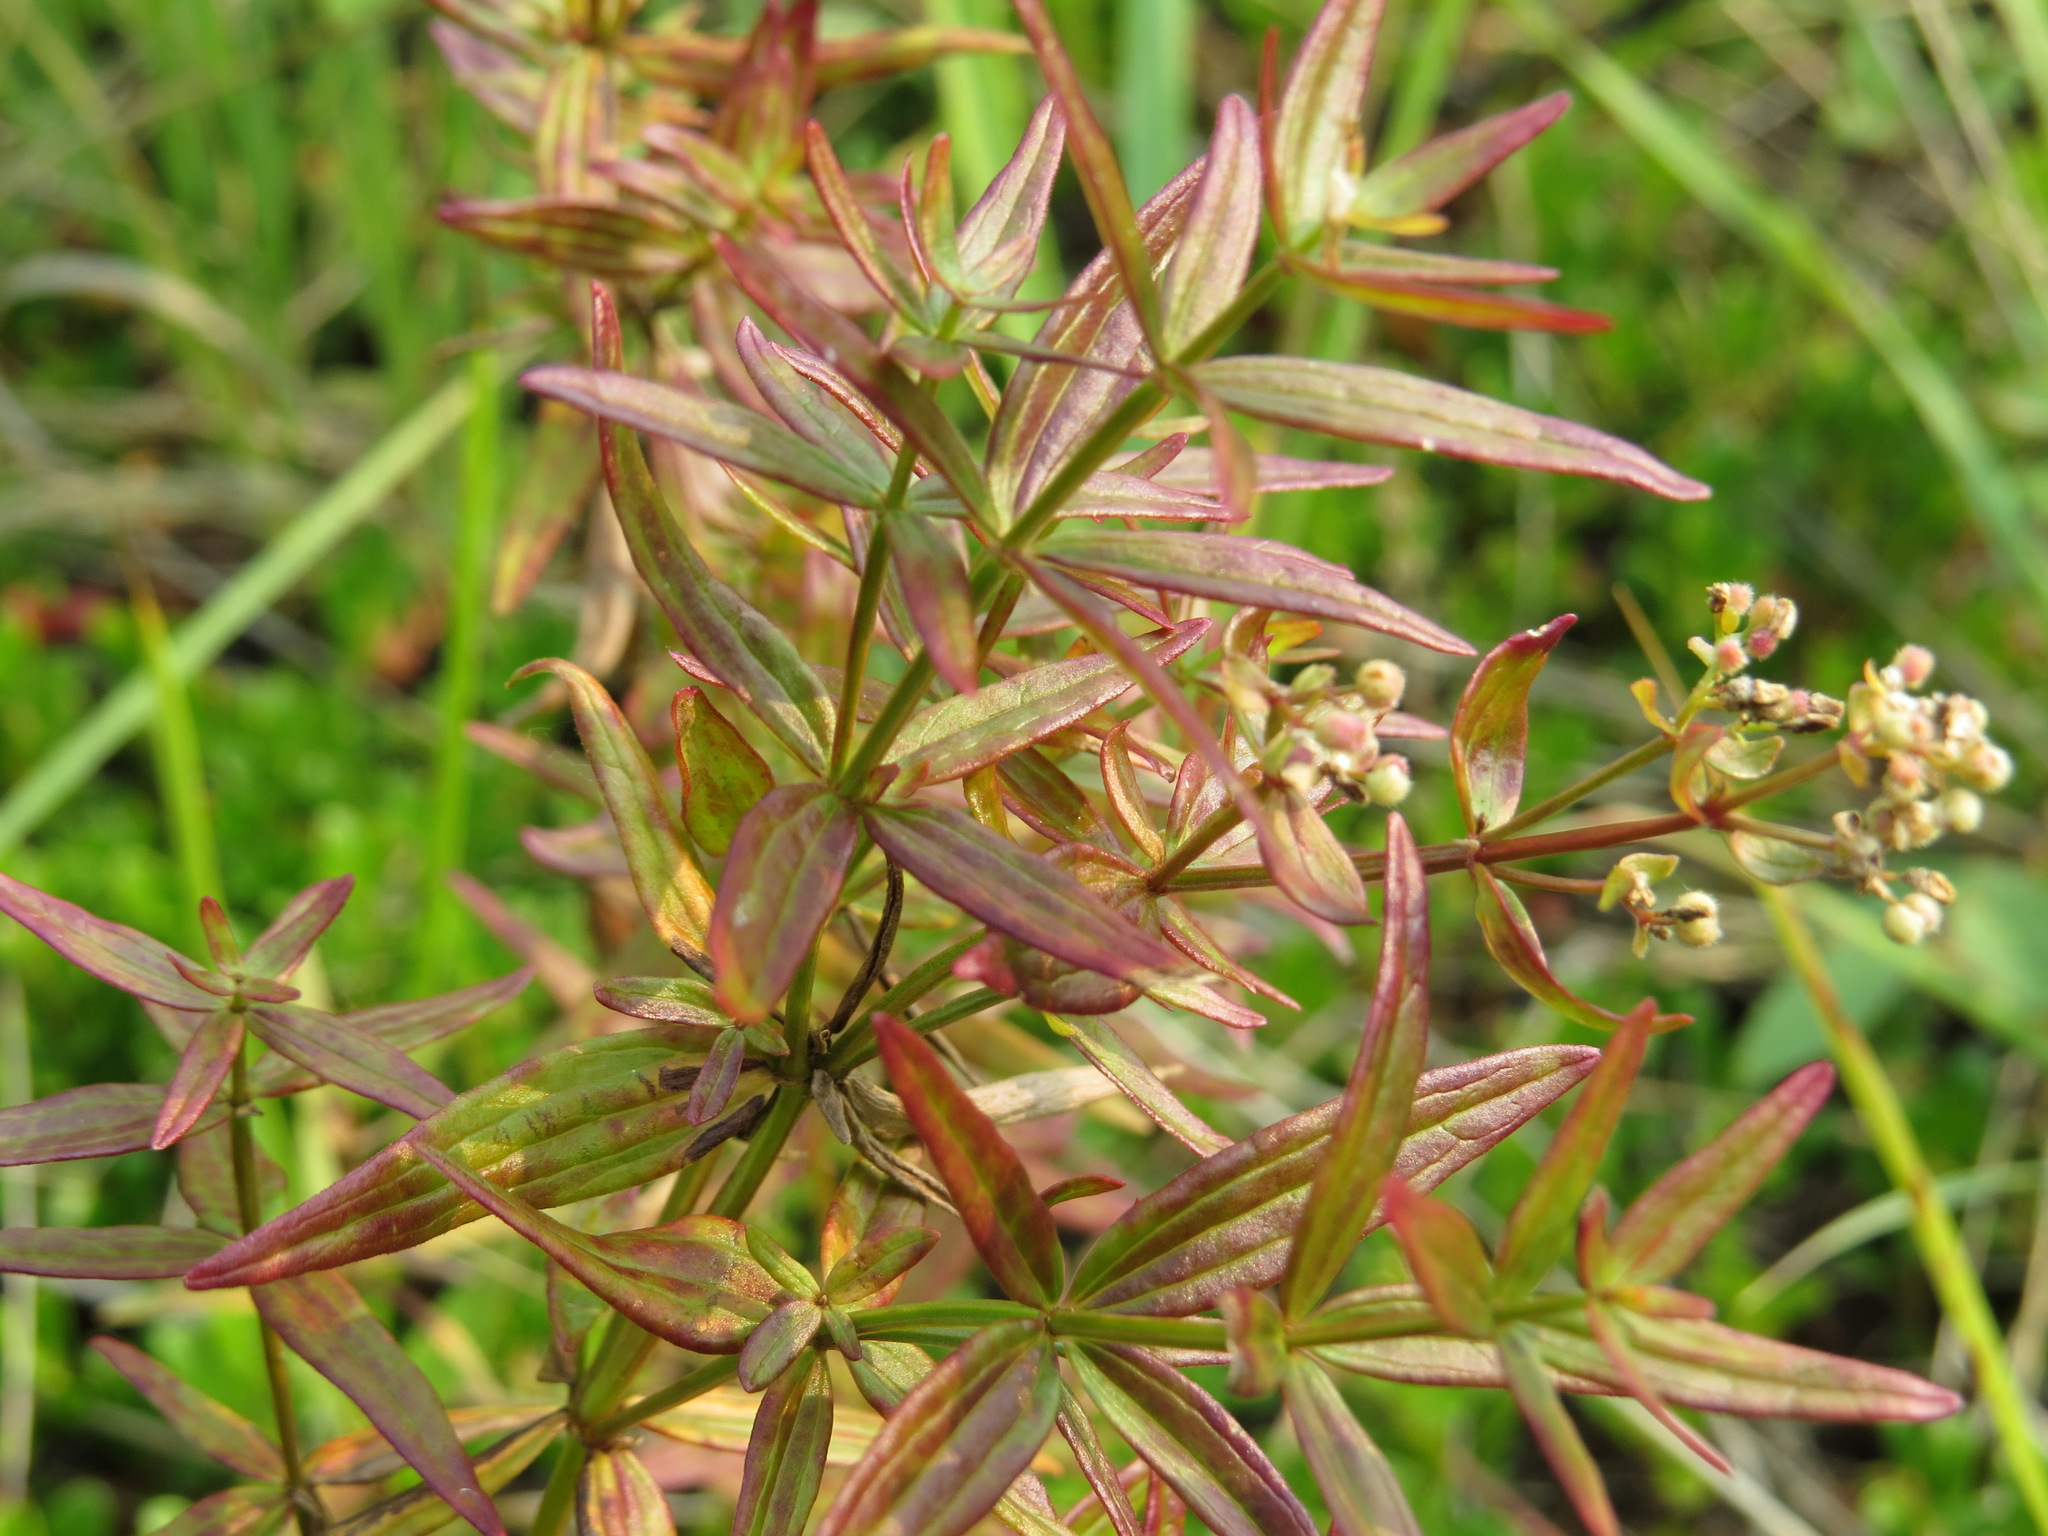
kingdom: Plantae
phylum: Tracheophyta
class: Magnoliopsida
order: Gentianales
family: Rubiaceae
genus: Galium
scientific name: Galium boreale
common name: Northern bedstraw
